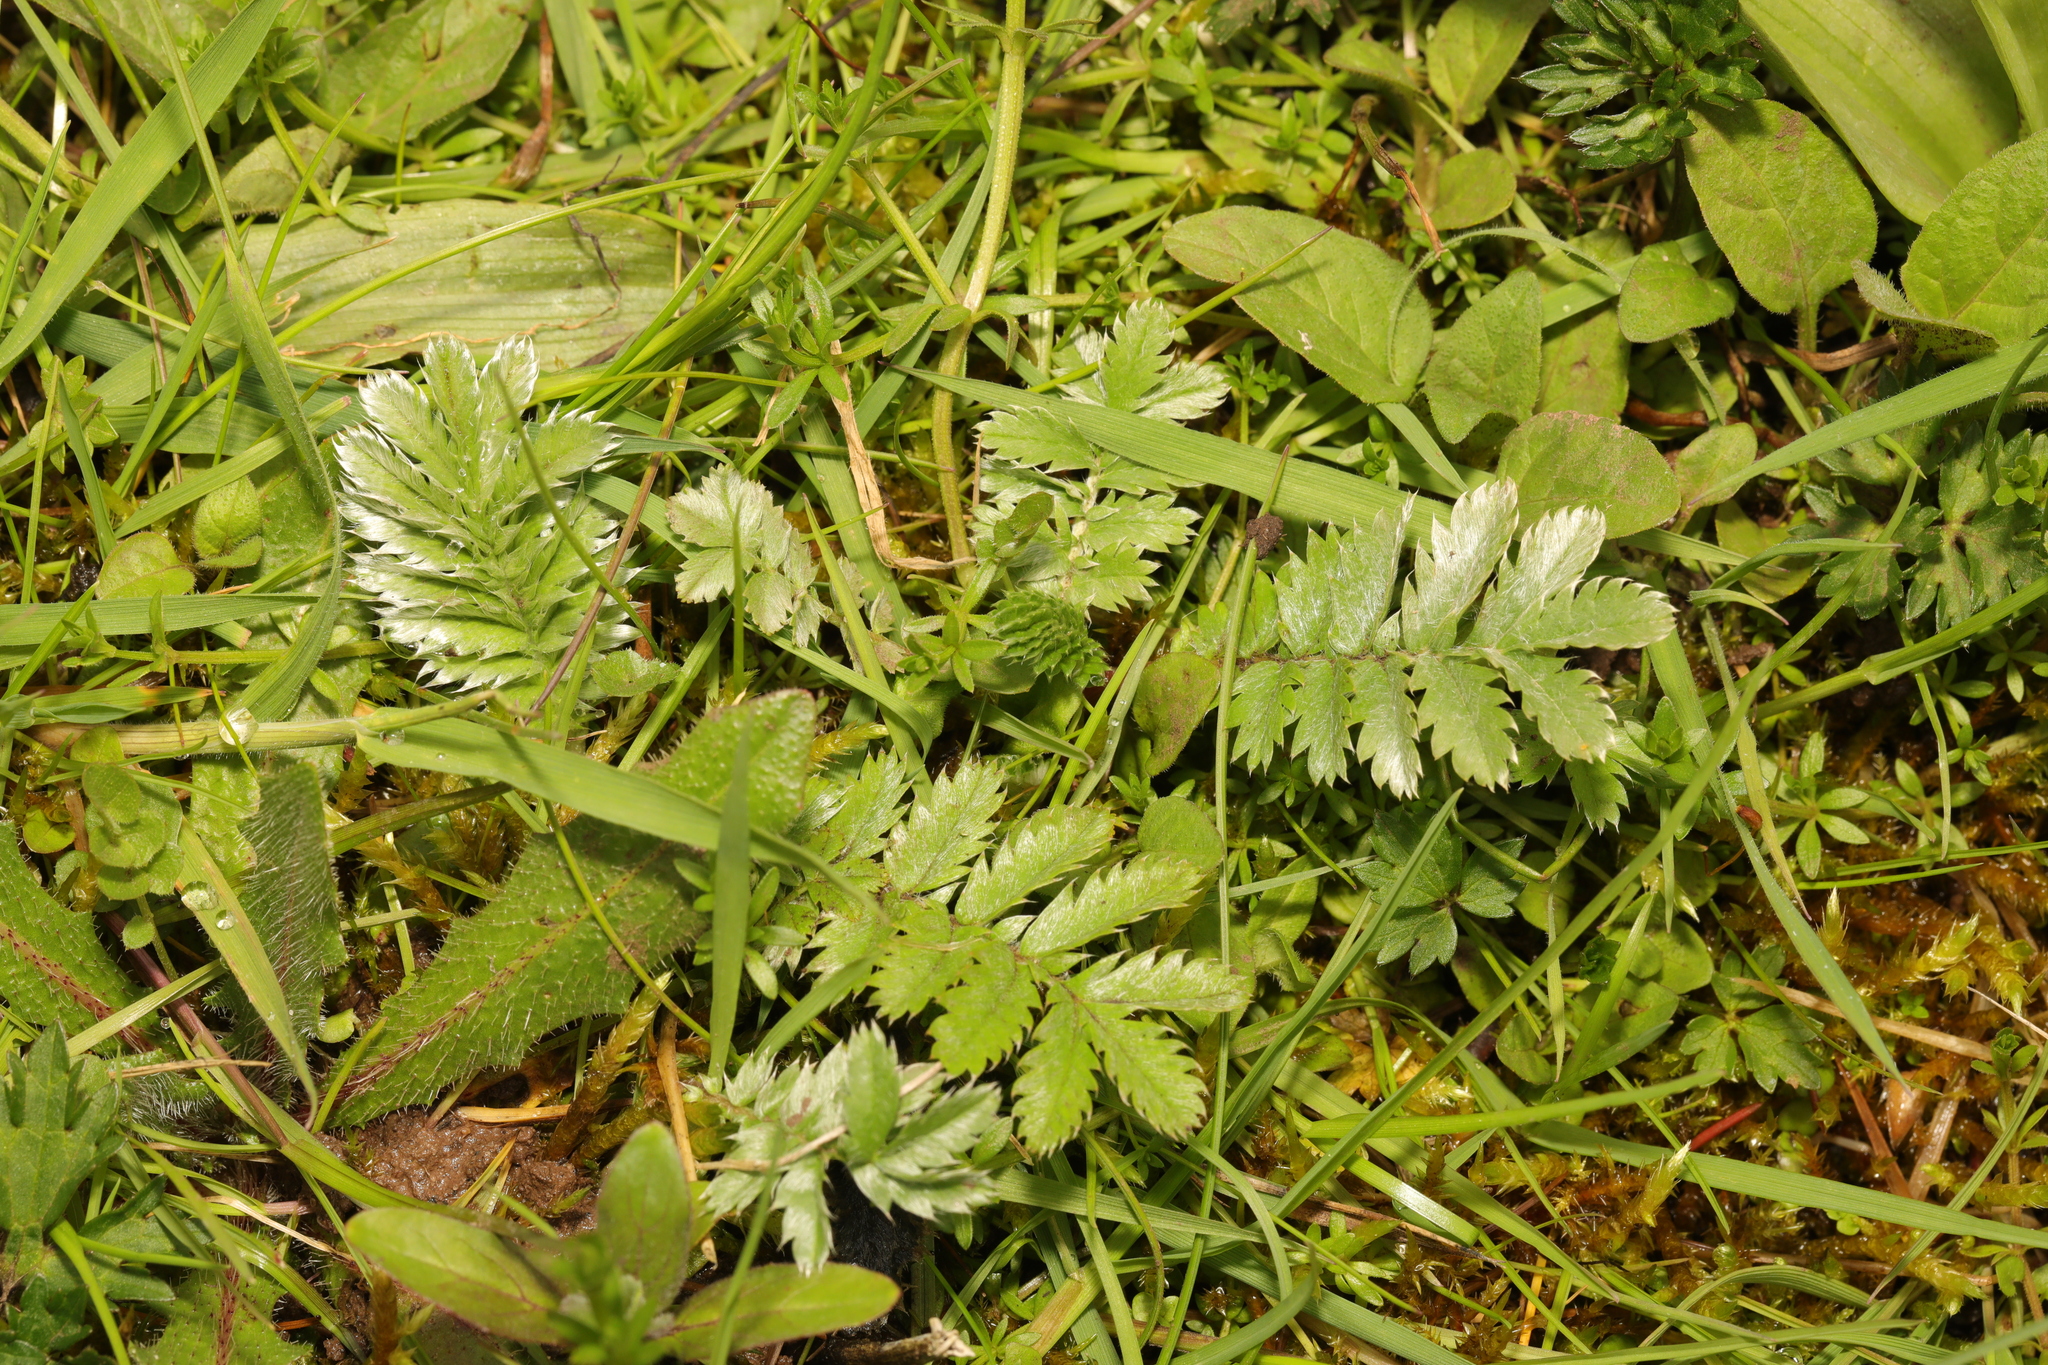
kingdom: Plantae
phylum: Tracheophyta
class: Magnoliopsida
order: Rosales
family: Rosaceae
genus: Argentina
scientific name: Argentina anserina
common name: Common silverweed
